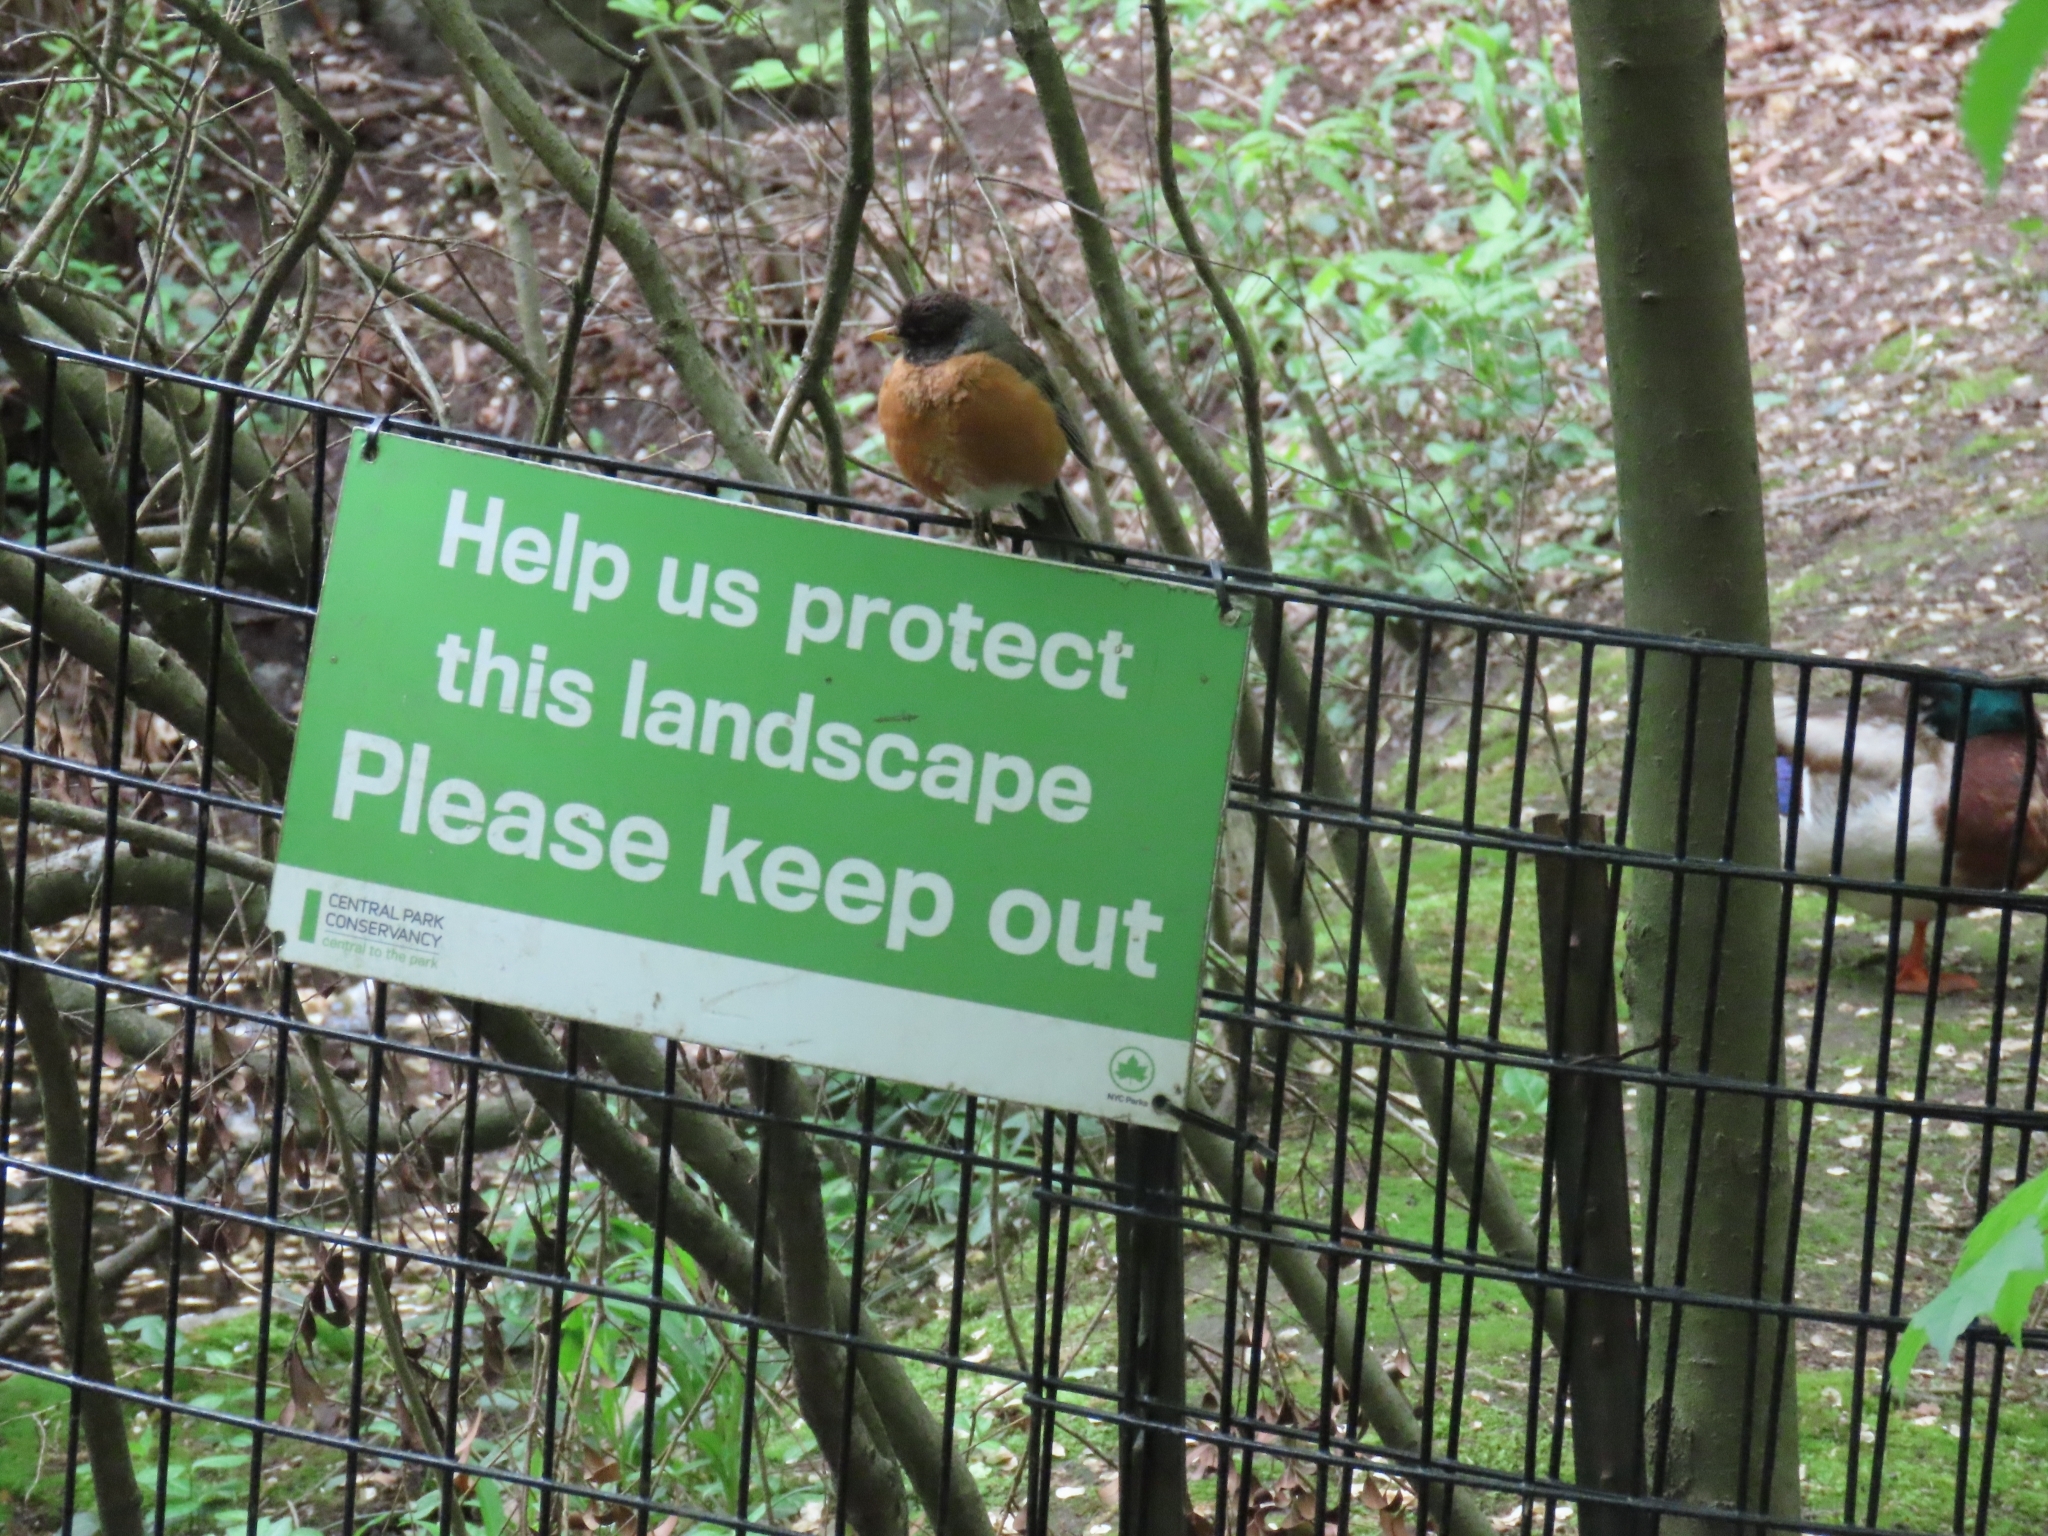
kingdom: Animalia
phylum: Chordata
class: Aves
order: Passeriformes
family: Turdidae
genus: Turdus
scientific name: Turdus migratorius
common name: American robin
